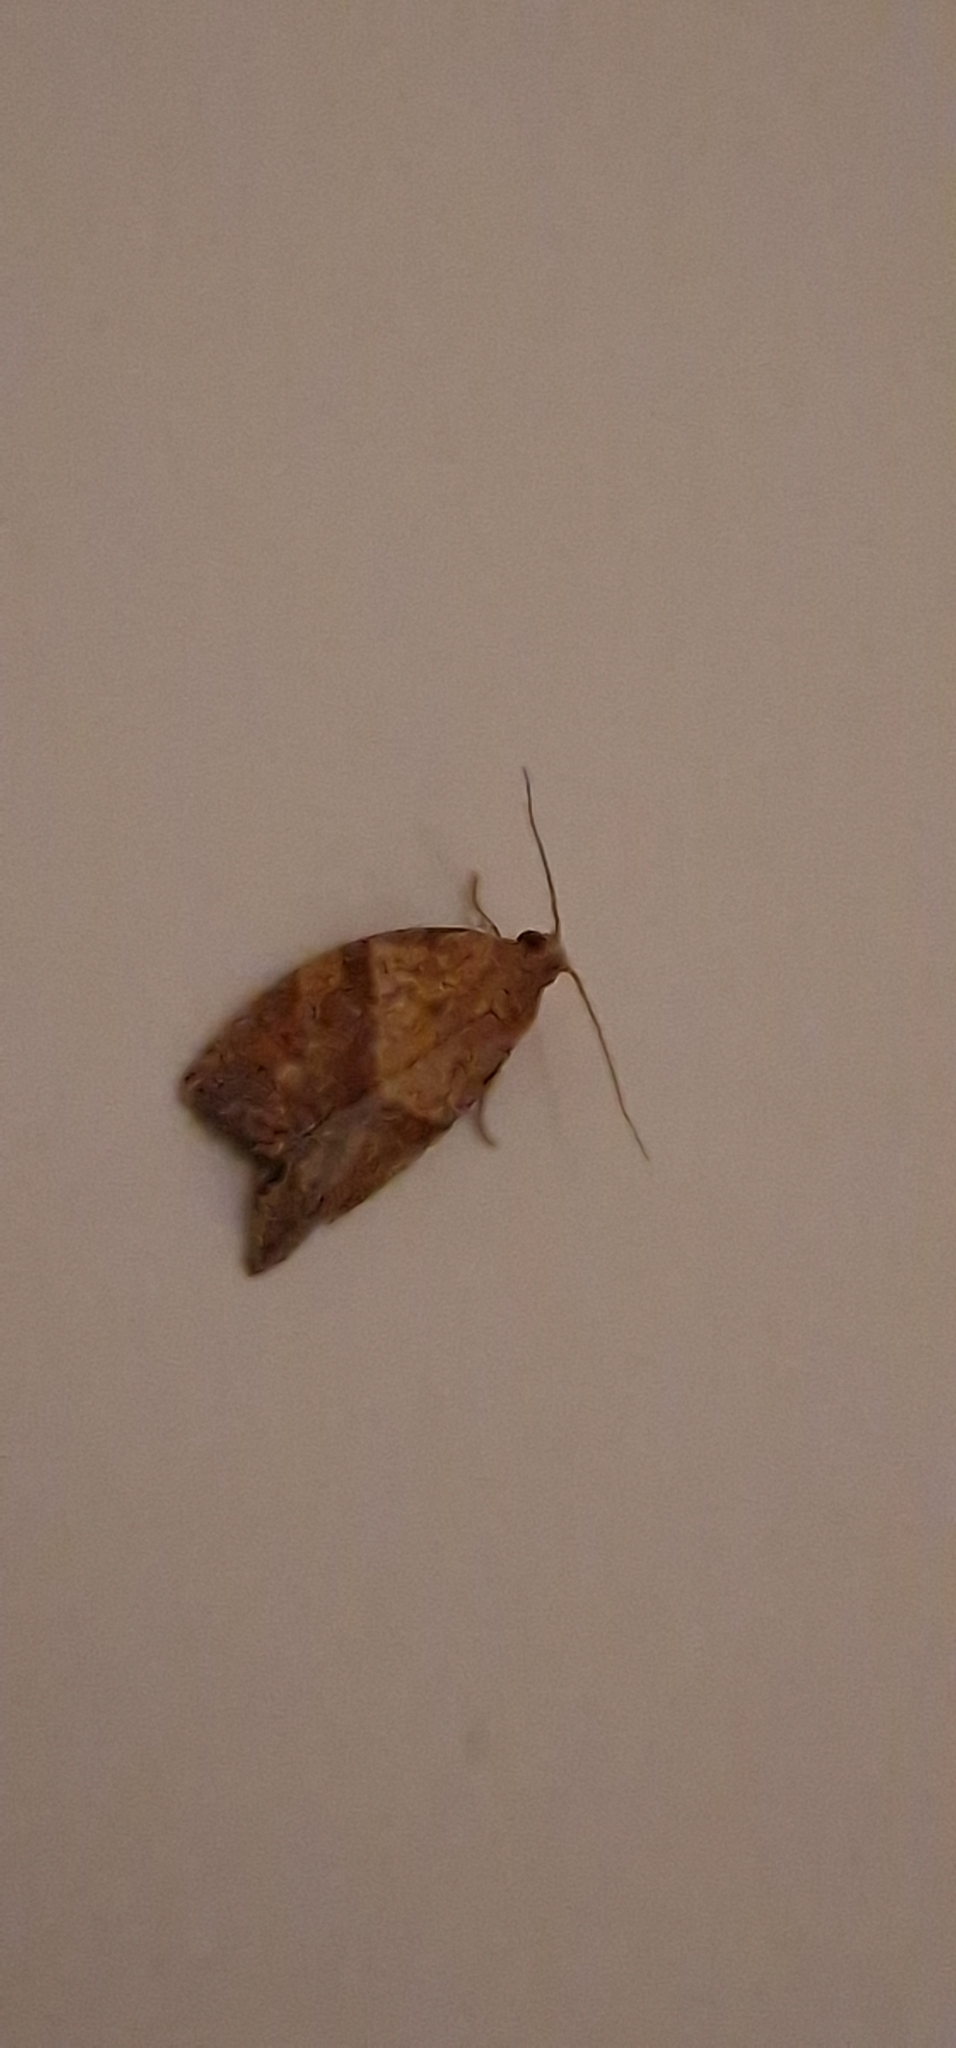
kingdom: Animalia
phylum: Arthropoda
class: Insecta
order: Lepidoptera
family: Tortricidae
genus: Epiphyas
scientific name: Epiphyas postvittana
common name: Light brown apple moth
